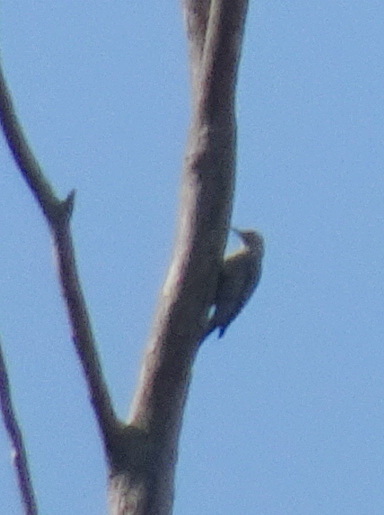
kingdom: Animalia
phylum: Chordata
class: Aves
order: Piciformes
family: Picidae
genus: Melanerpes
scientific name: Melanerpes carolinus
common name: Red-bellied woodpecker
